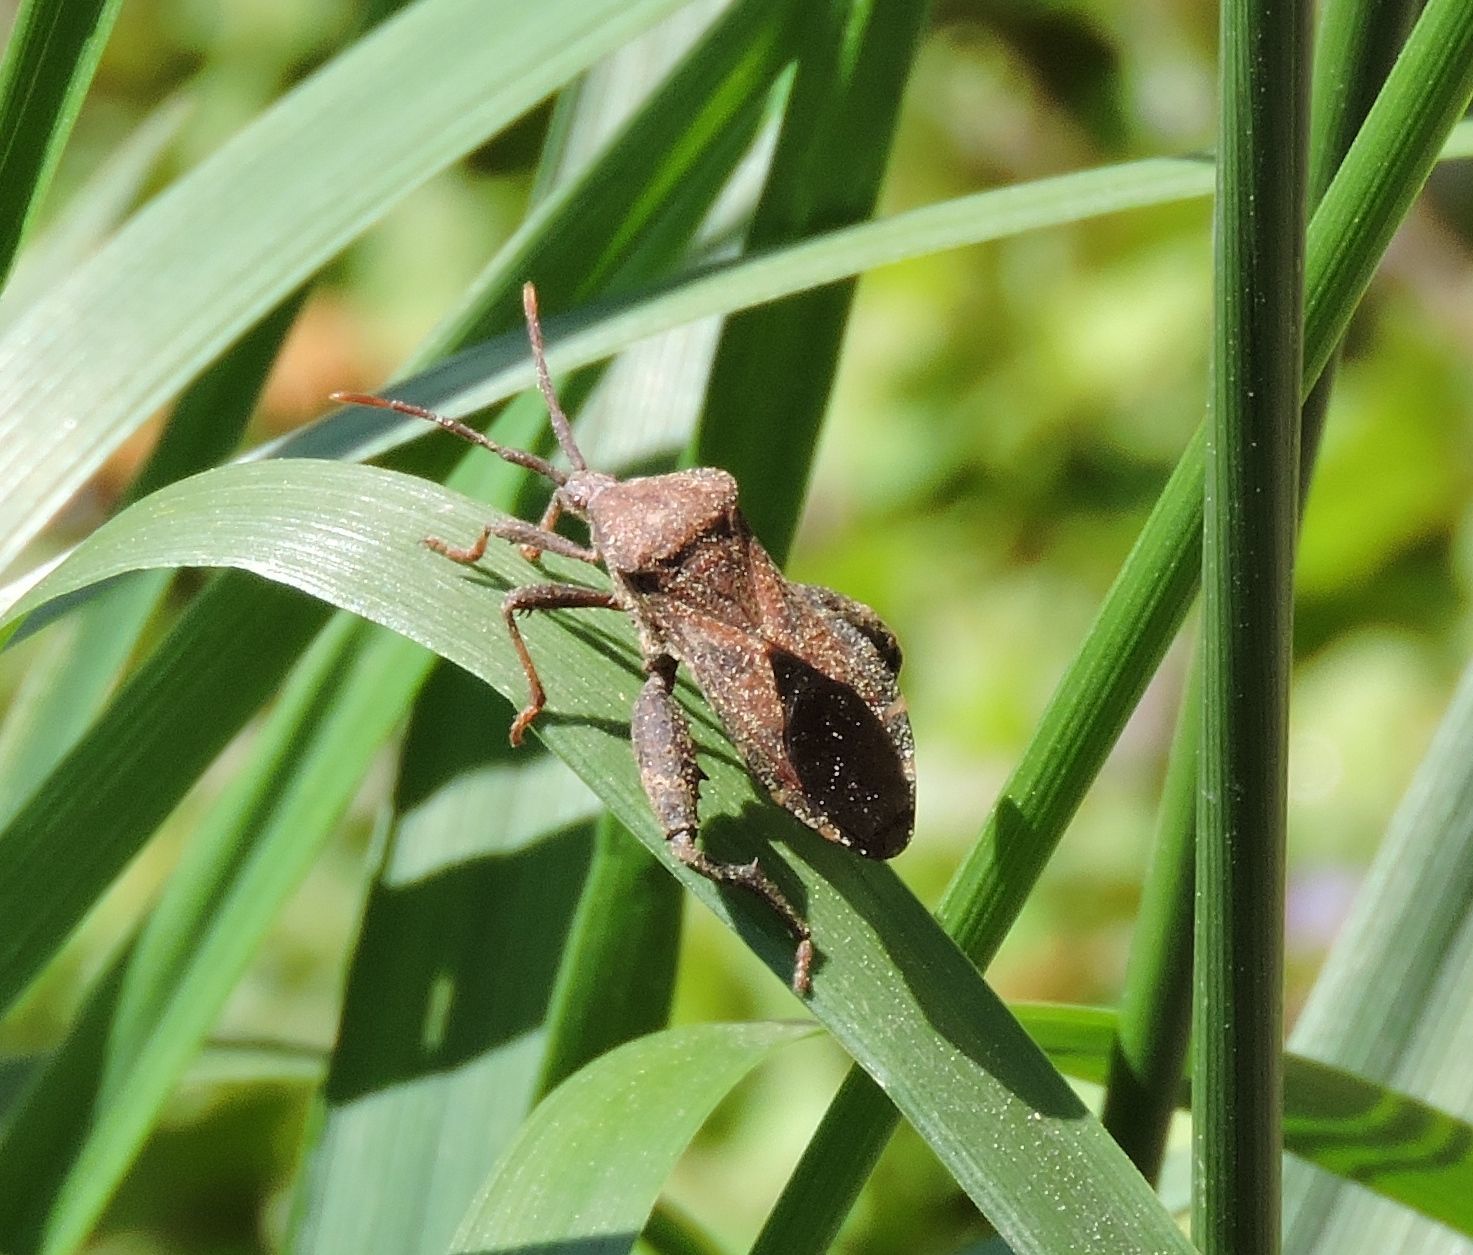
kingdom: Animalia
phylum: Arthropoda
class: Insecta
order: Hemiptera
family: Coreidae
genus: Piezogaster
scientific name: Piezogaster calcarator
